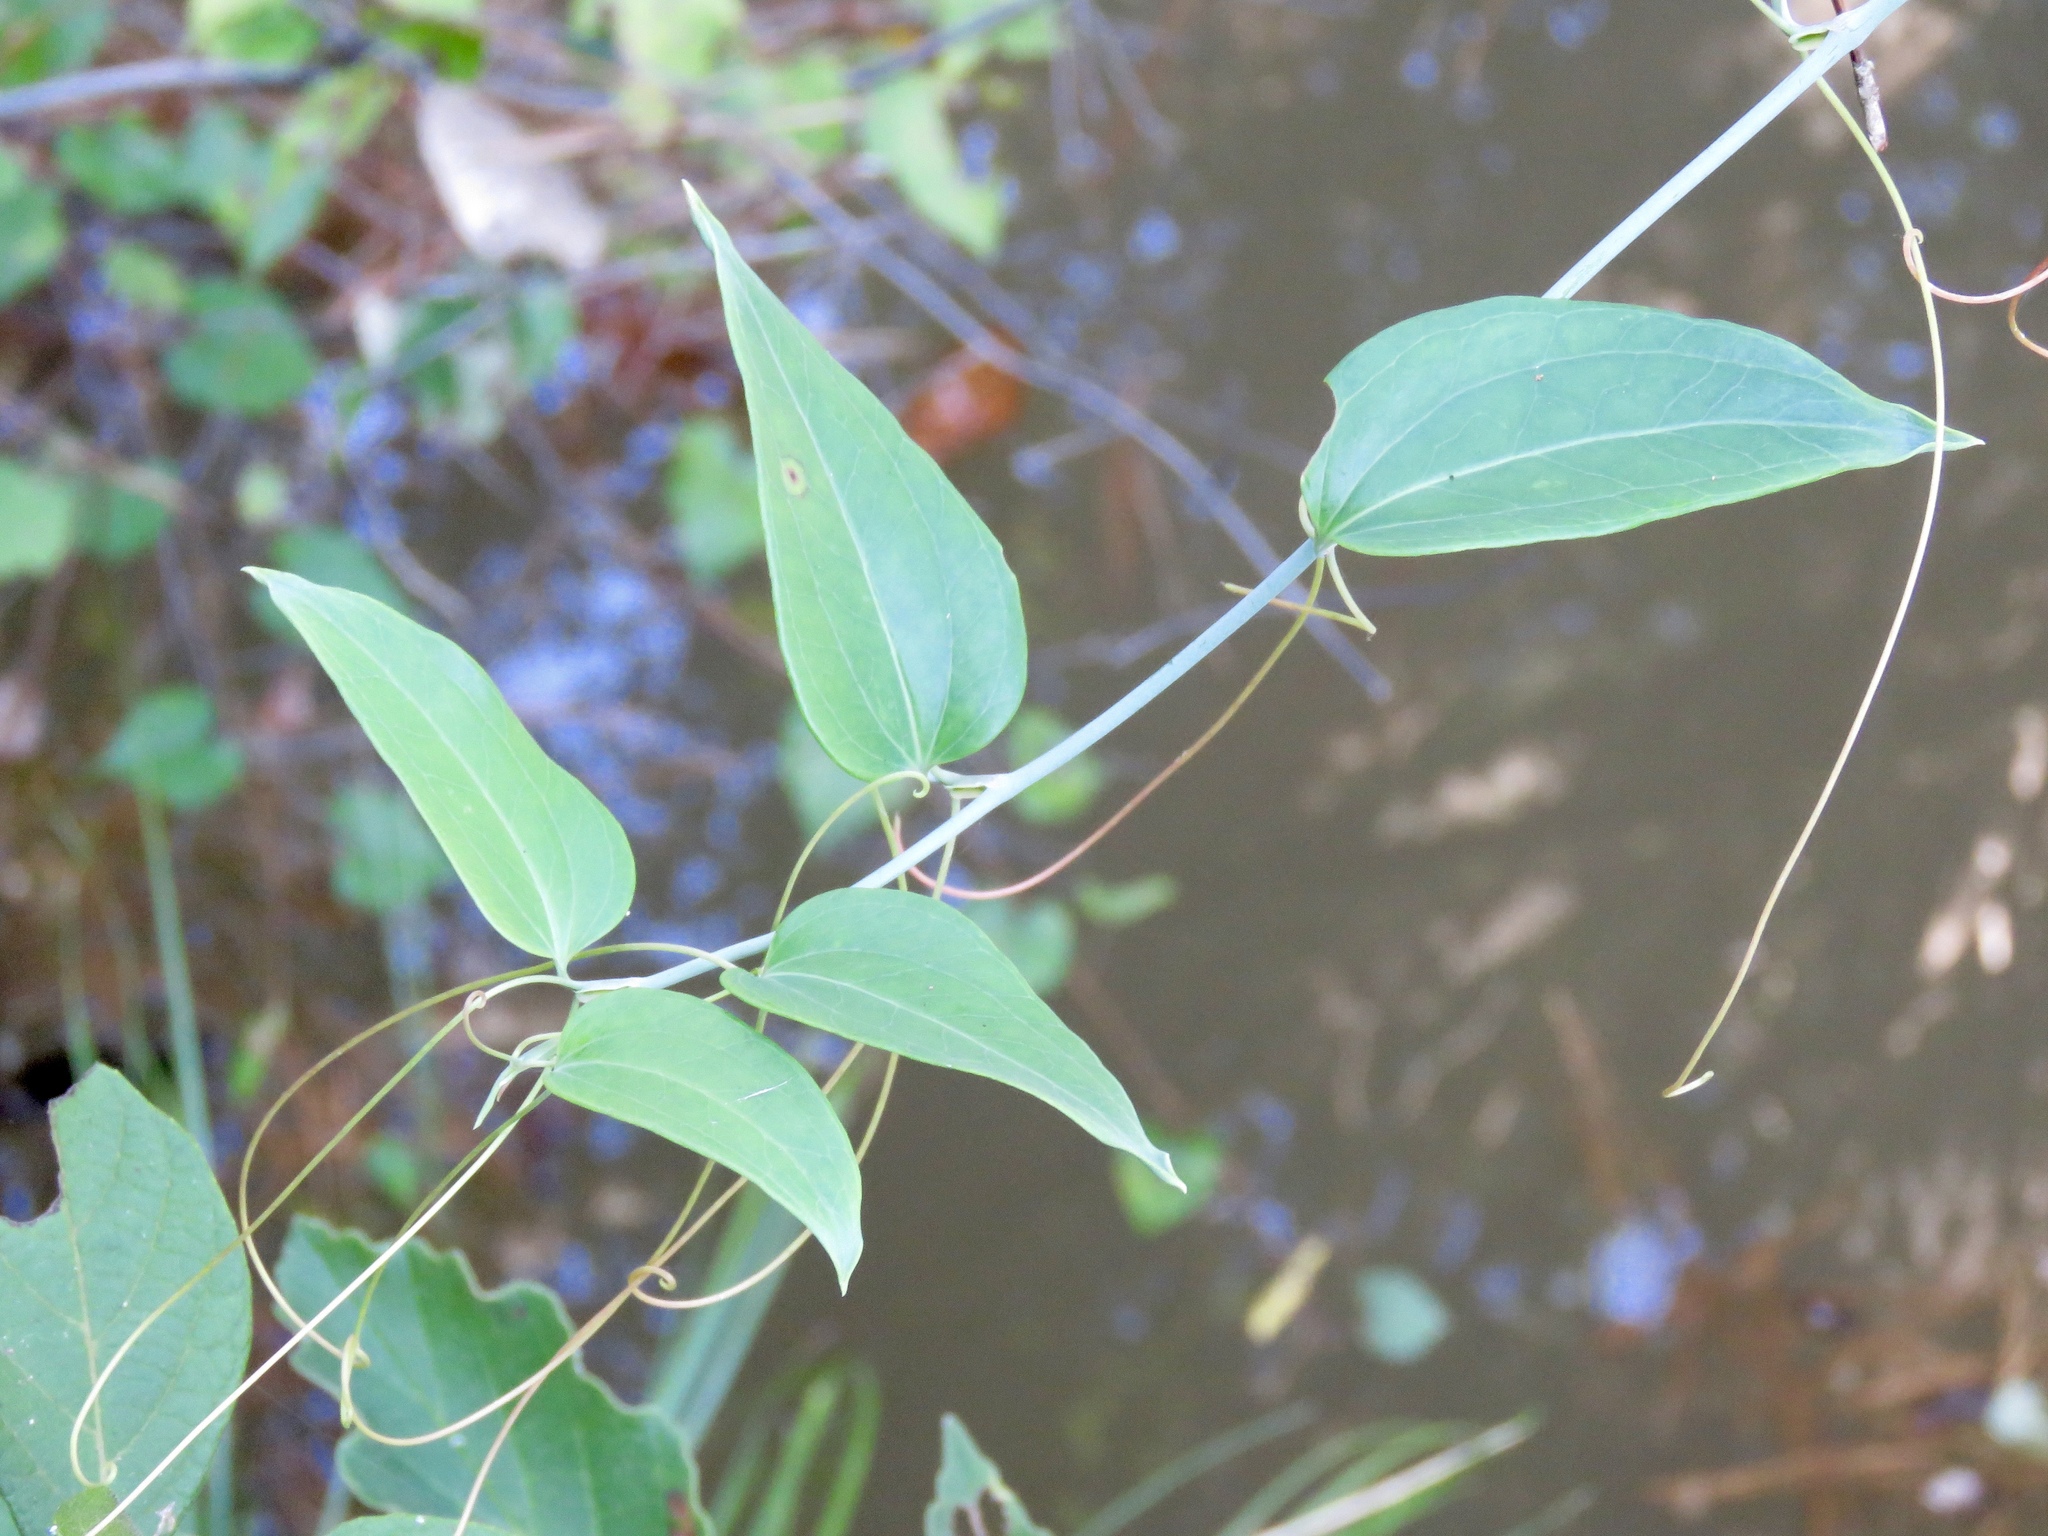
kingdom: Plantae
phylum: Tracheophyta
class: Liliopsida
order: Liliales
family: Smilacaceae
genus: Smilax
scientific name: Smilax glauca
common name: Cat greenbrier
